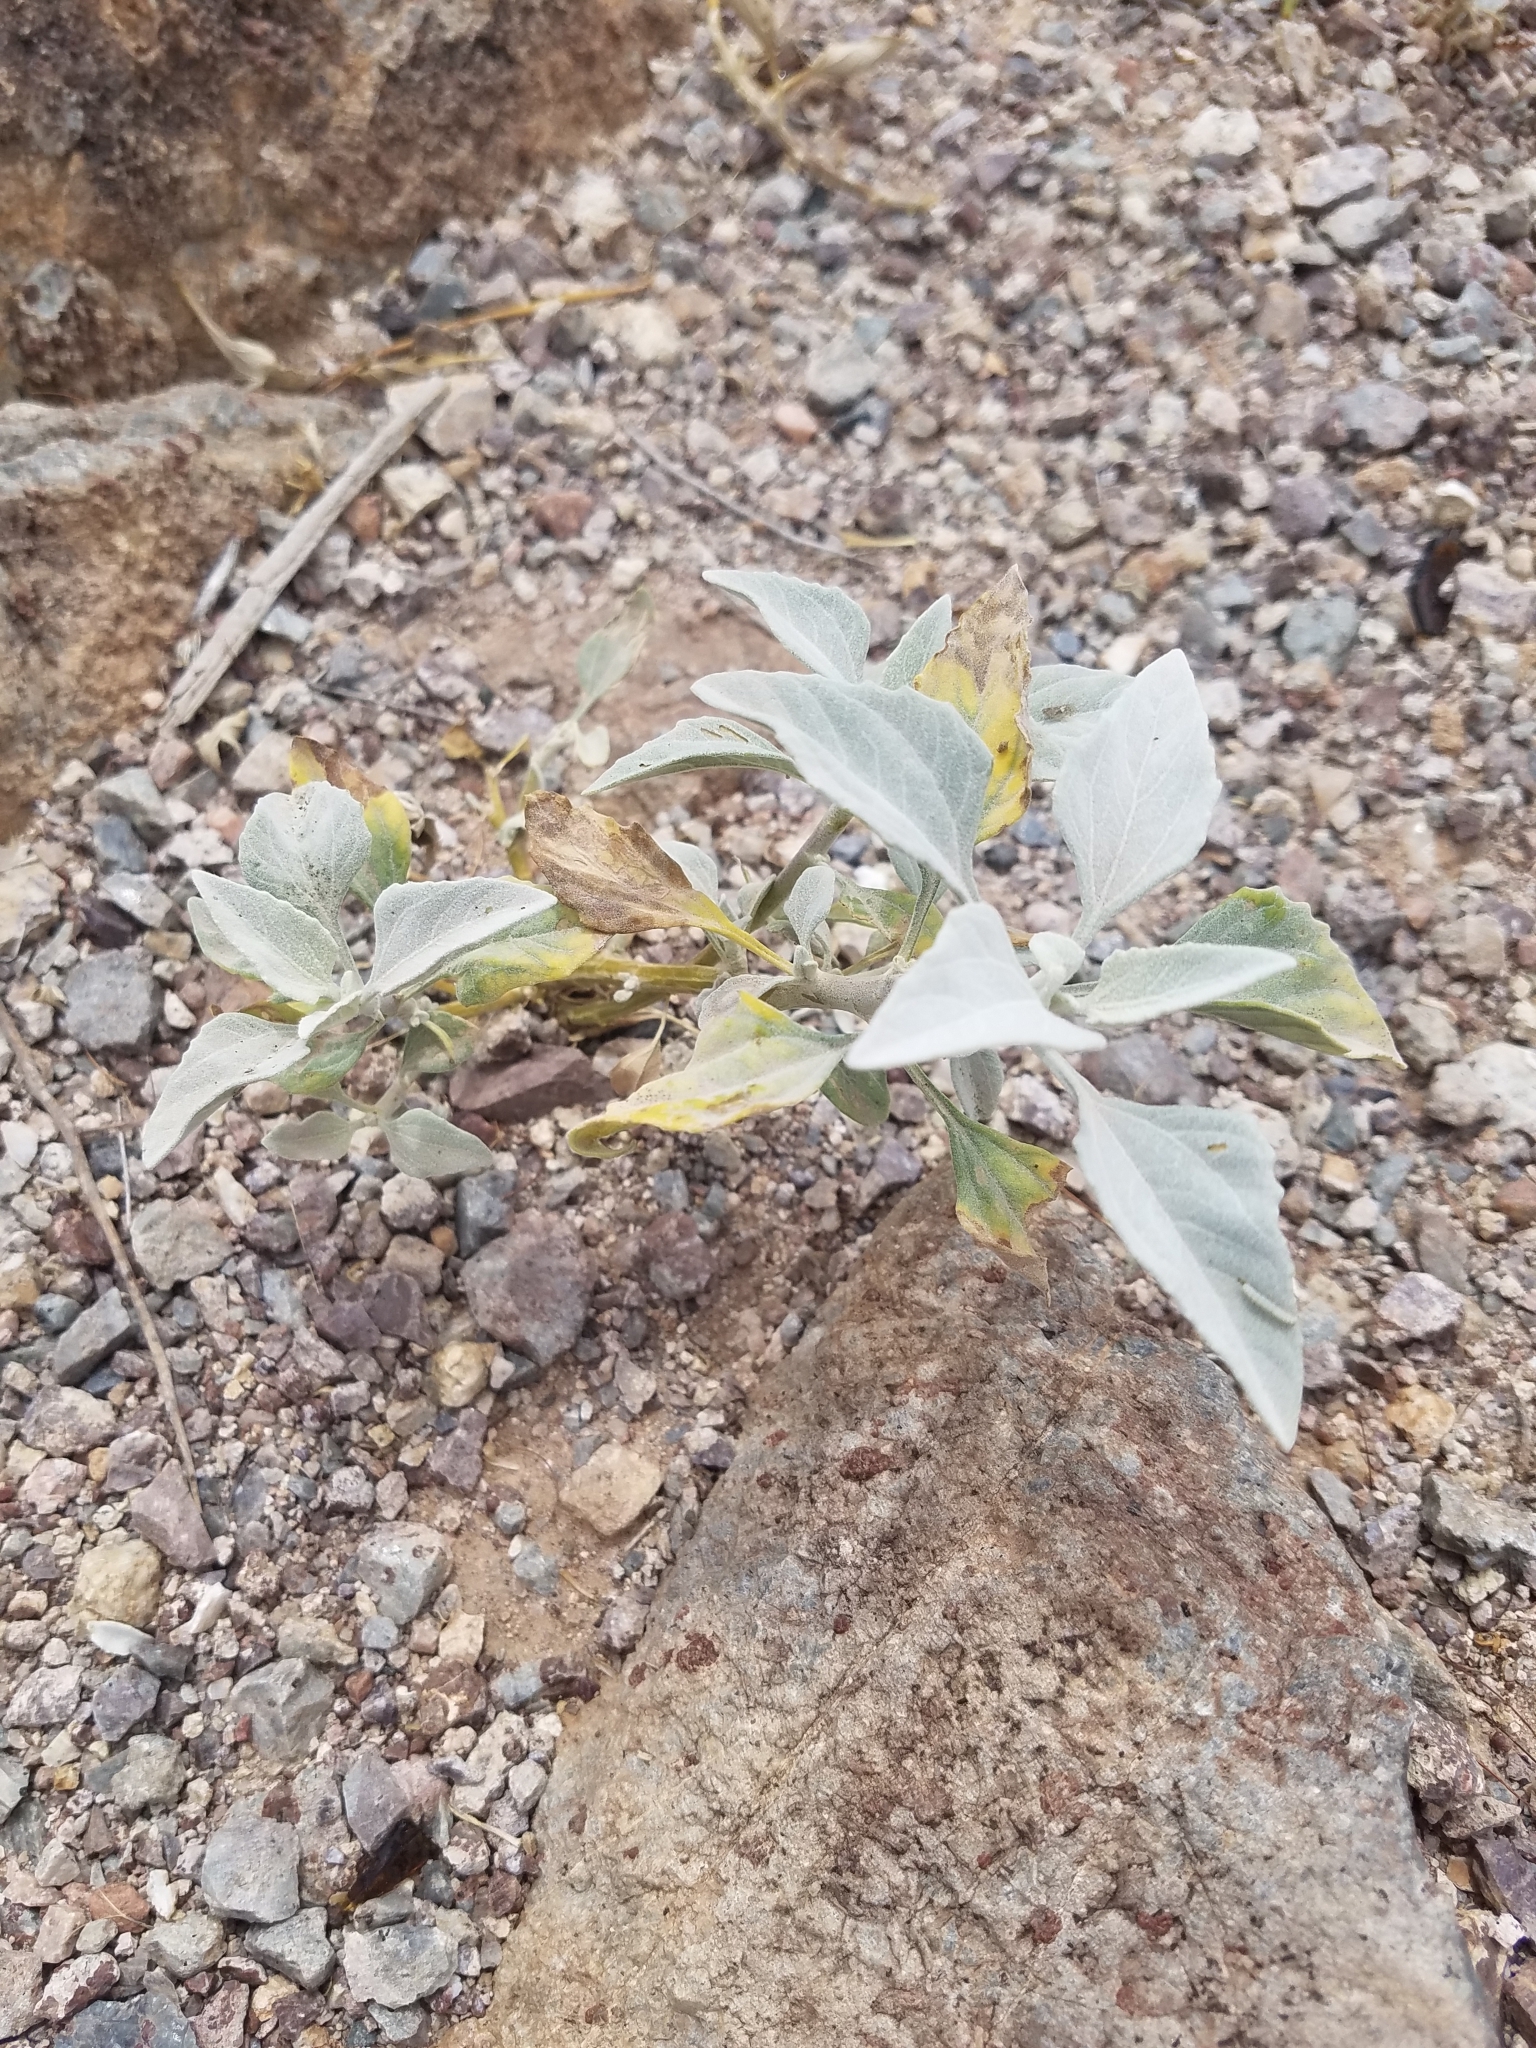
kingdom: Plantae
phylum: Tracheophyta
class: Magnoliopsida
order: Asterales
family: Asteraceae
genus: Encelia
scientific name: Encelia farinosa
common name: Brittlebush
